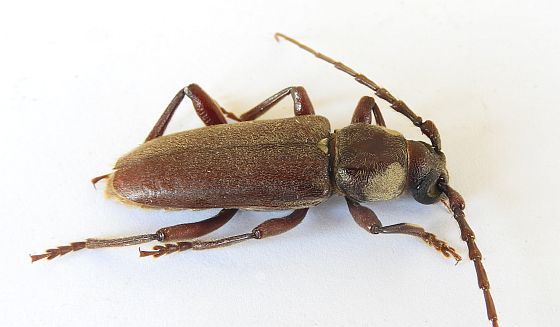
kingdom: Animalia
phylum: Arthropoda
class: Insecta
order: Coleoptera
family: Cerambycidae
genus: Eustromula
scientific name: Eustromula validum
